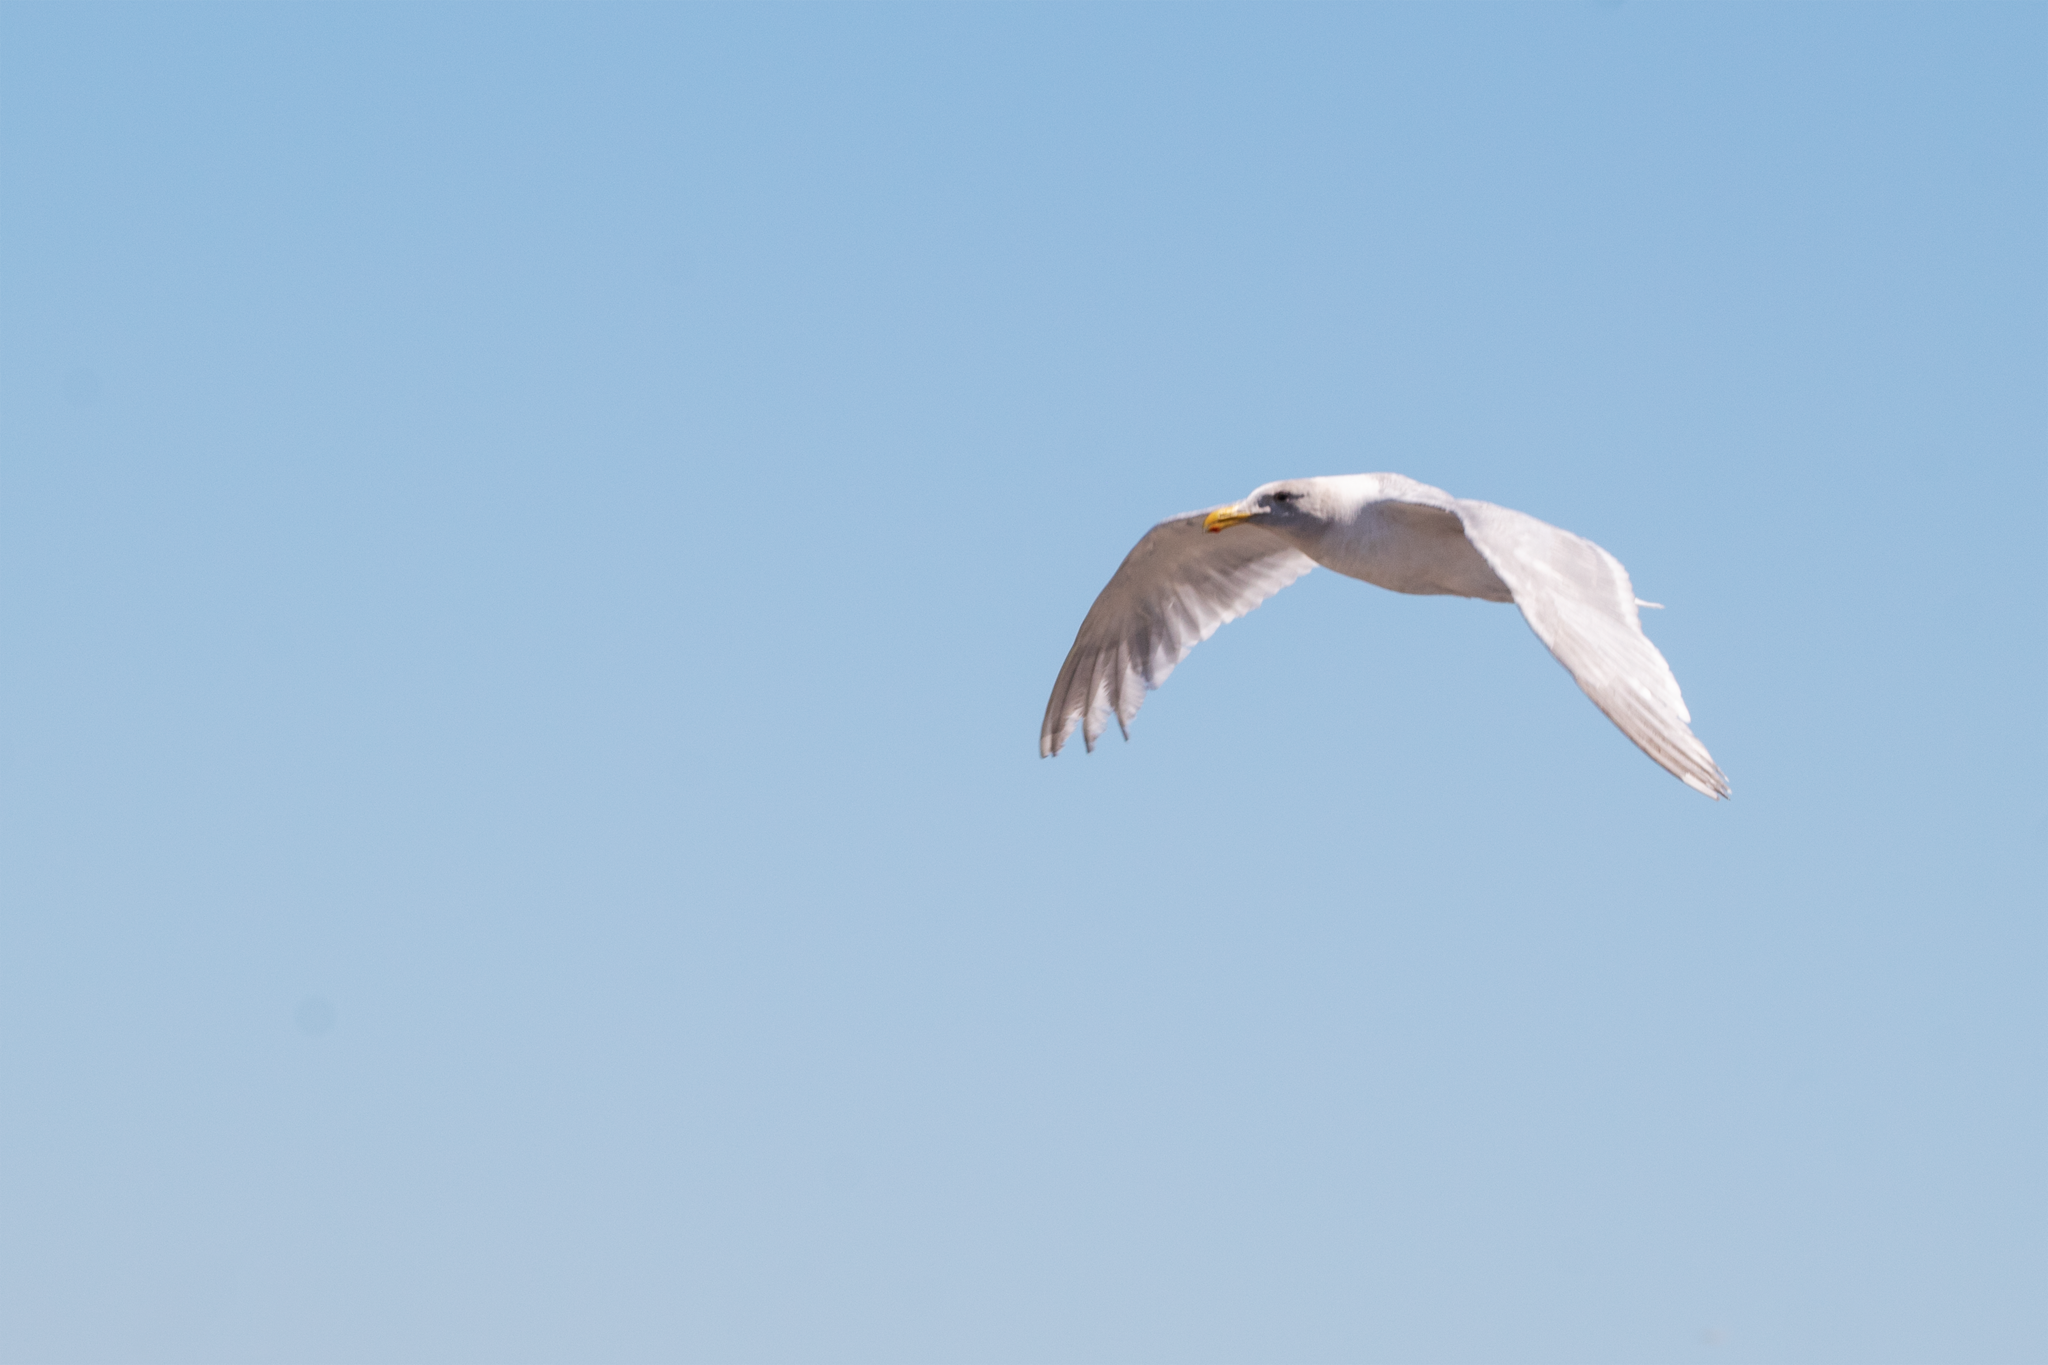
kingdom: Animalia
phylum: Chordata
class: Aves
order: Charadriiformes
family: Laridae
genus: Larus
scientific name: Larus glaucescens
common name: Glaucous-winged gull
